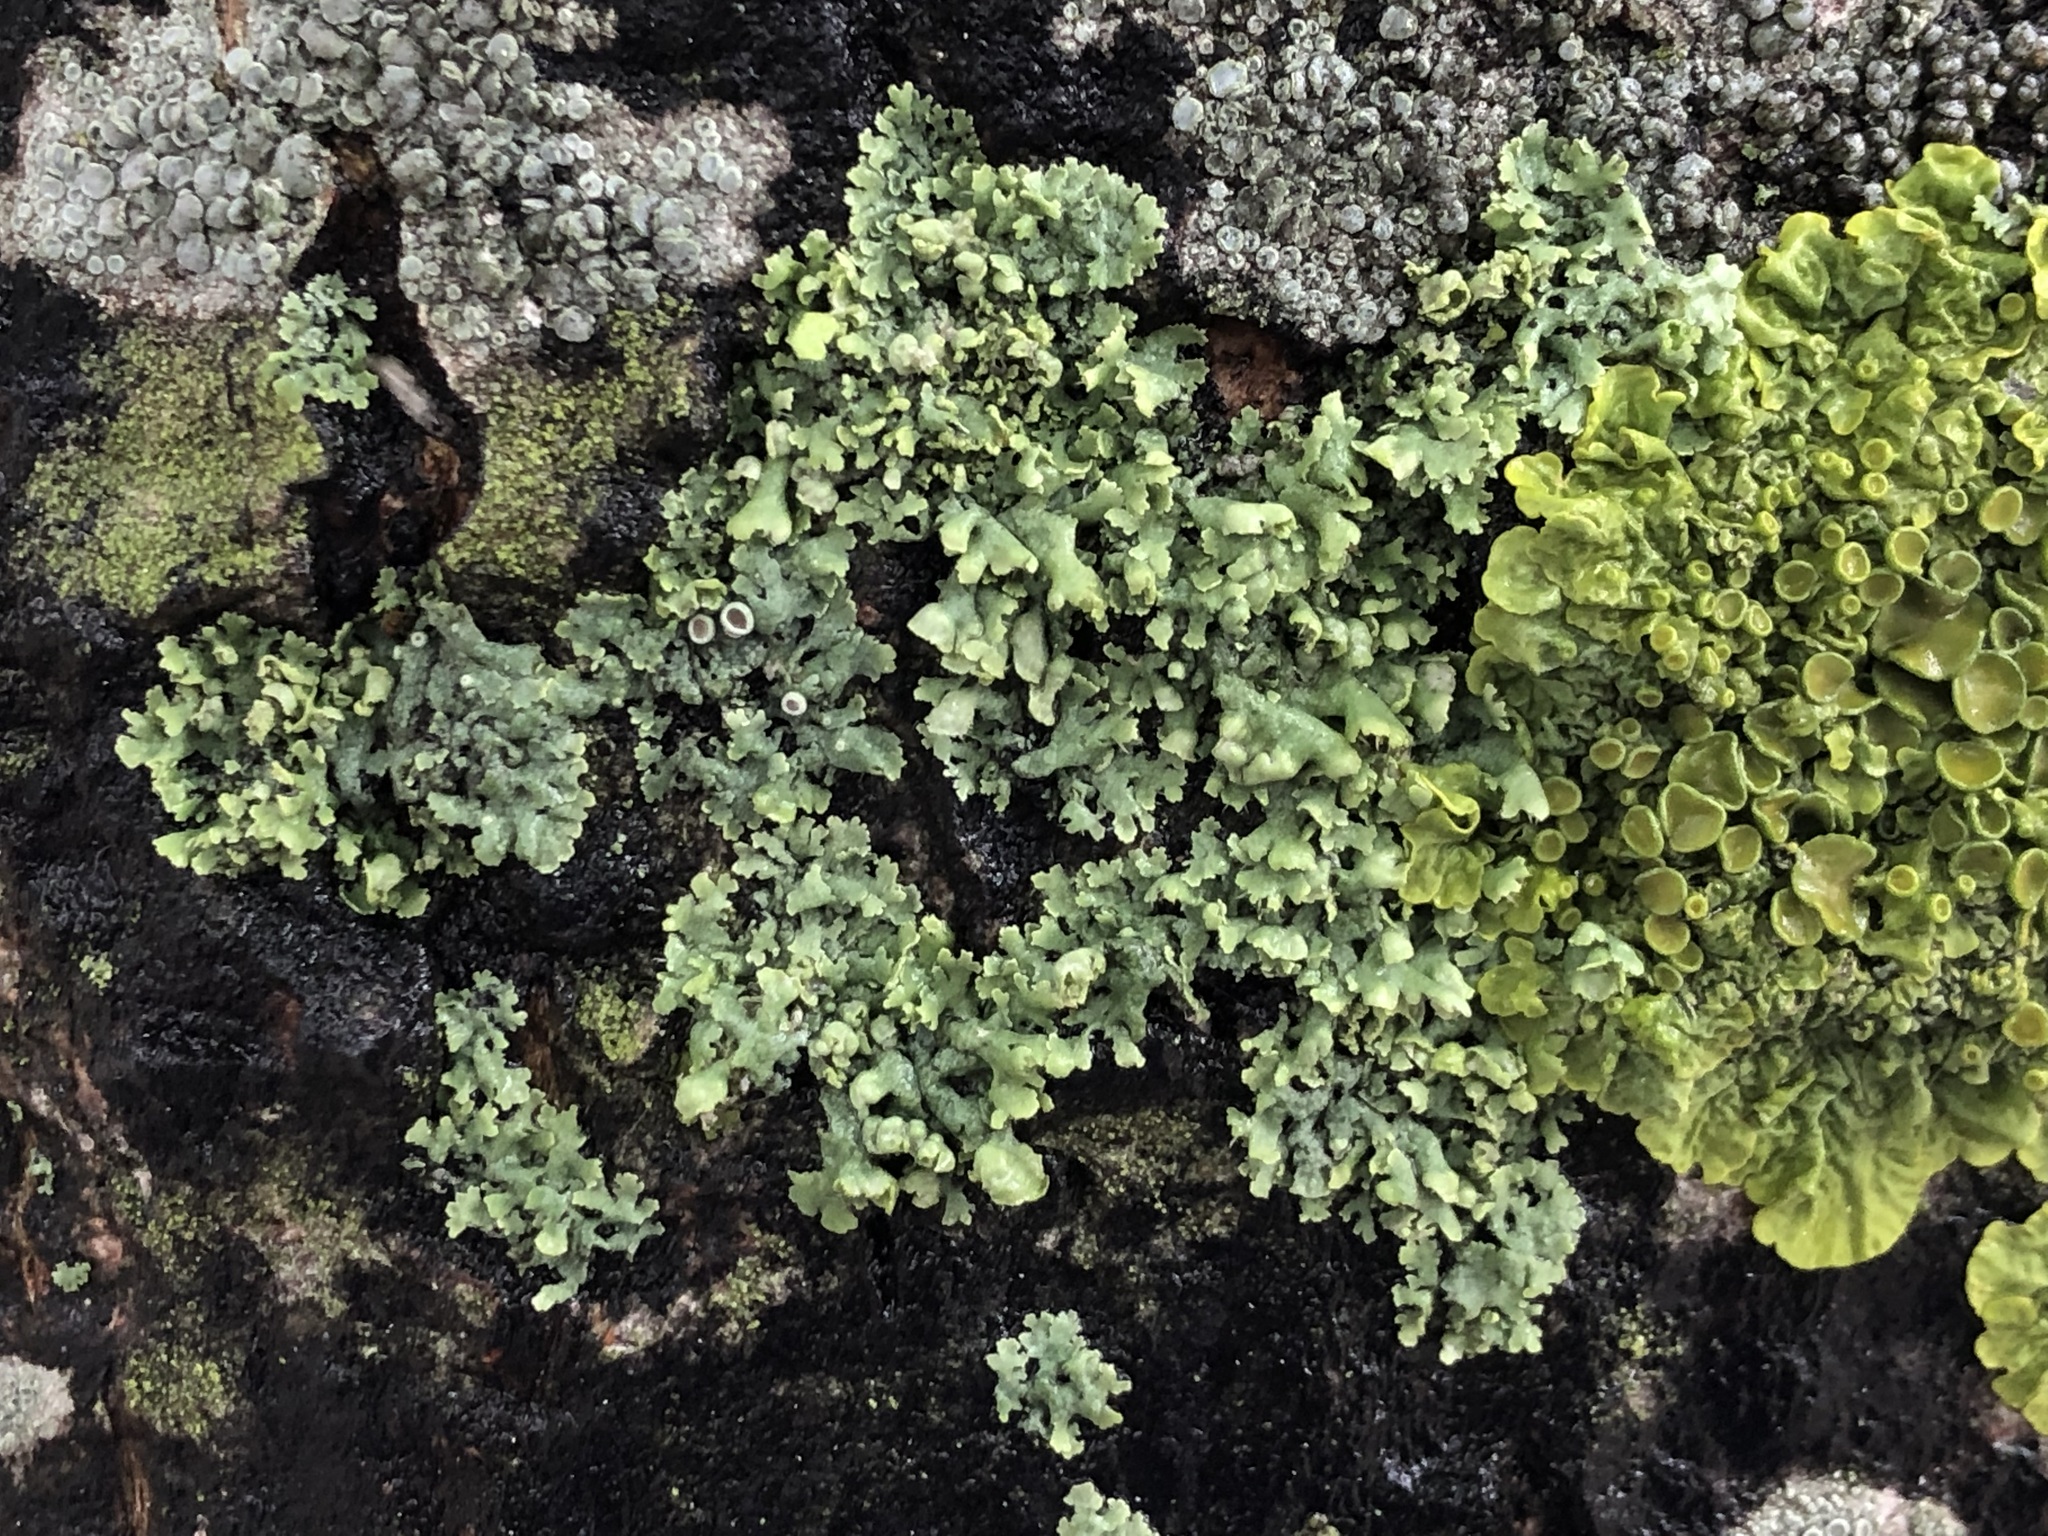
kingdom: Fungi
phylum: Ascomycota
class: Lecanoromycetes
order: Caliciales
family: Physciaceae
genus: Physcia
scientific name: Physcia adscendens
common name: Hooded rosette lichen
